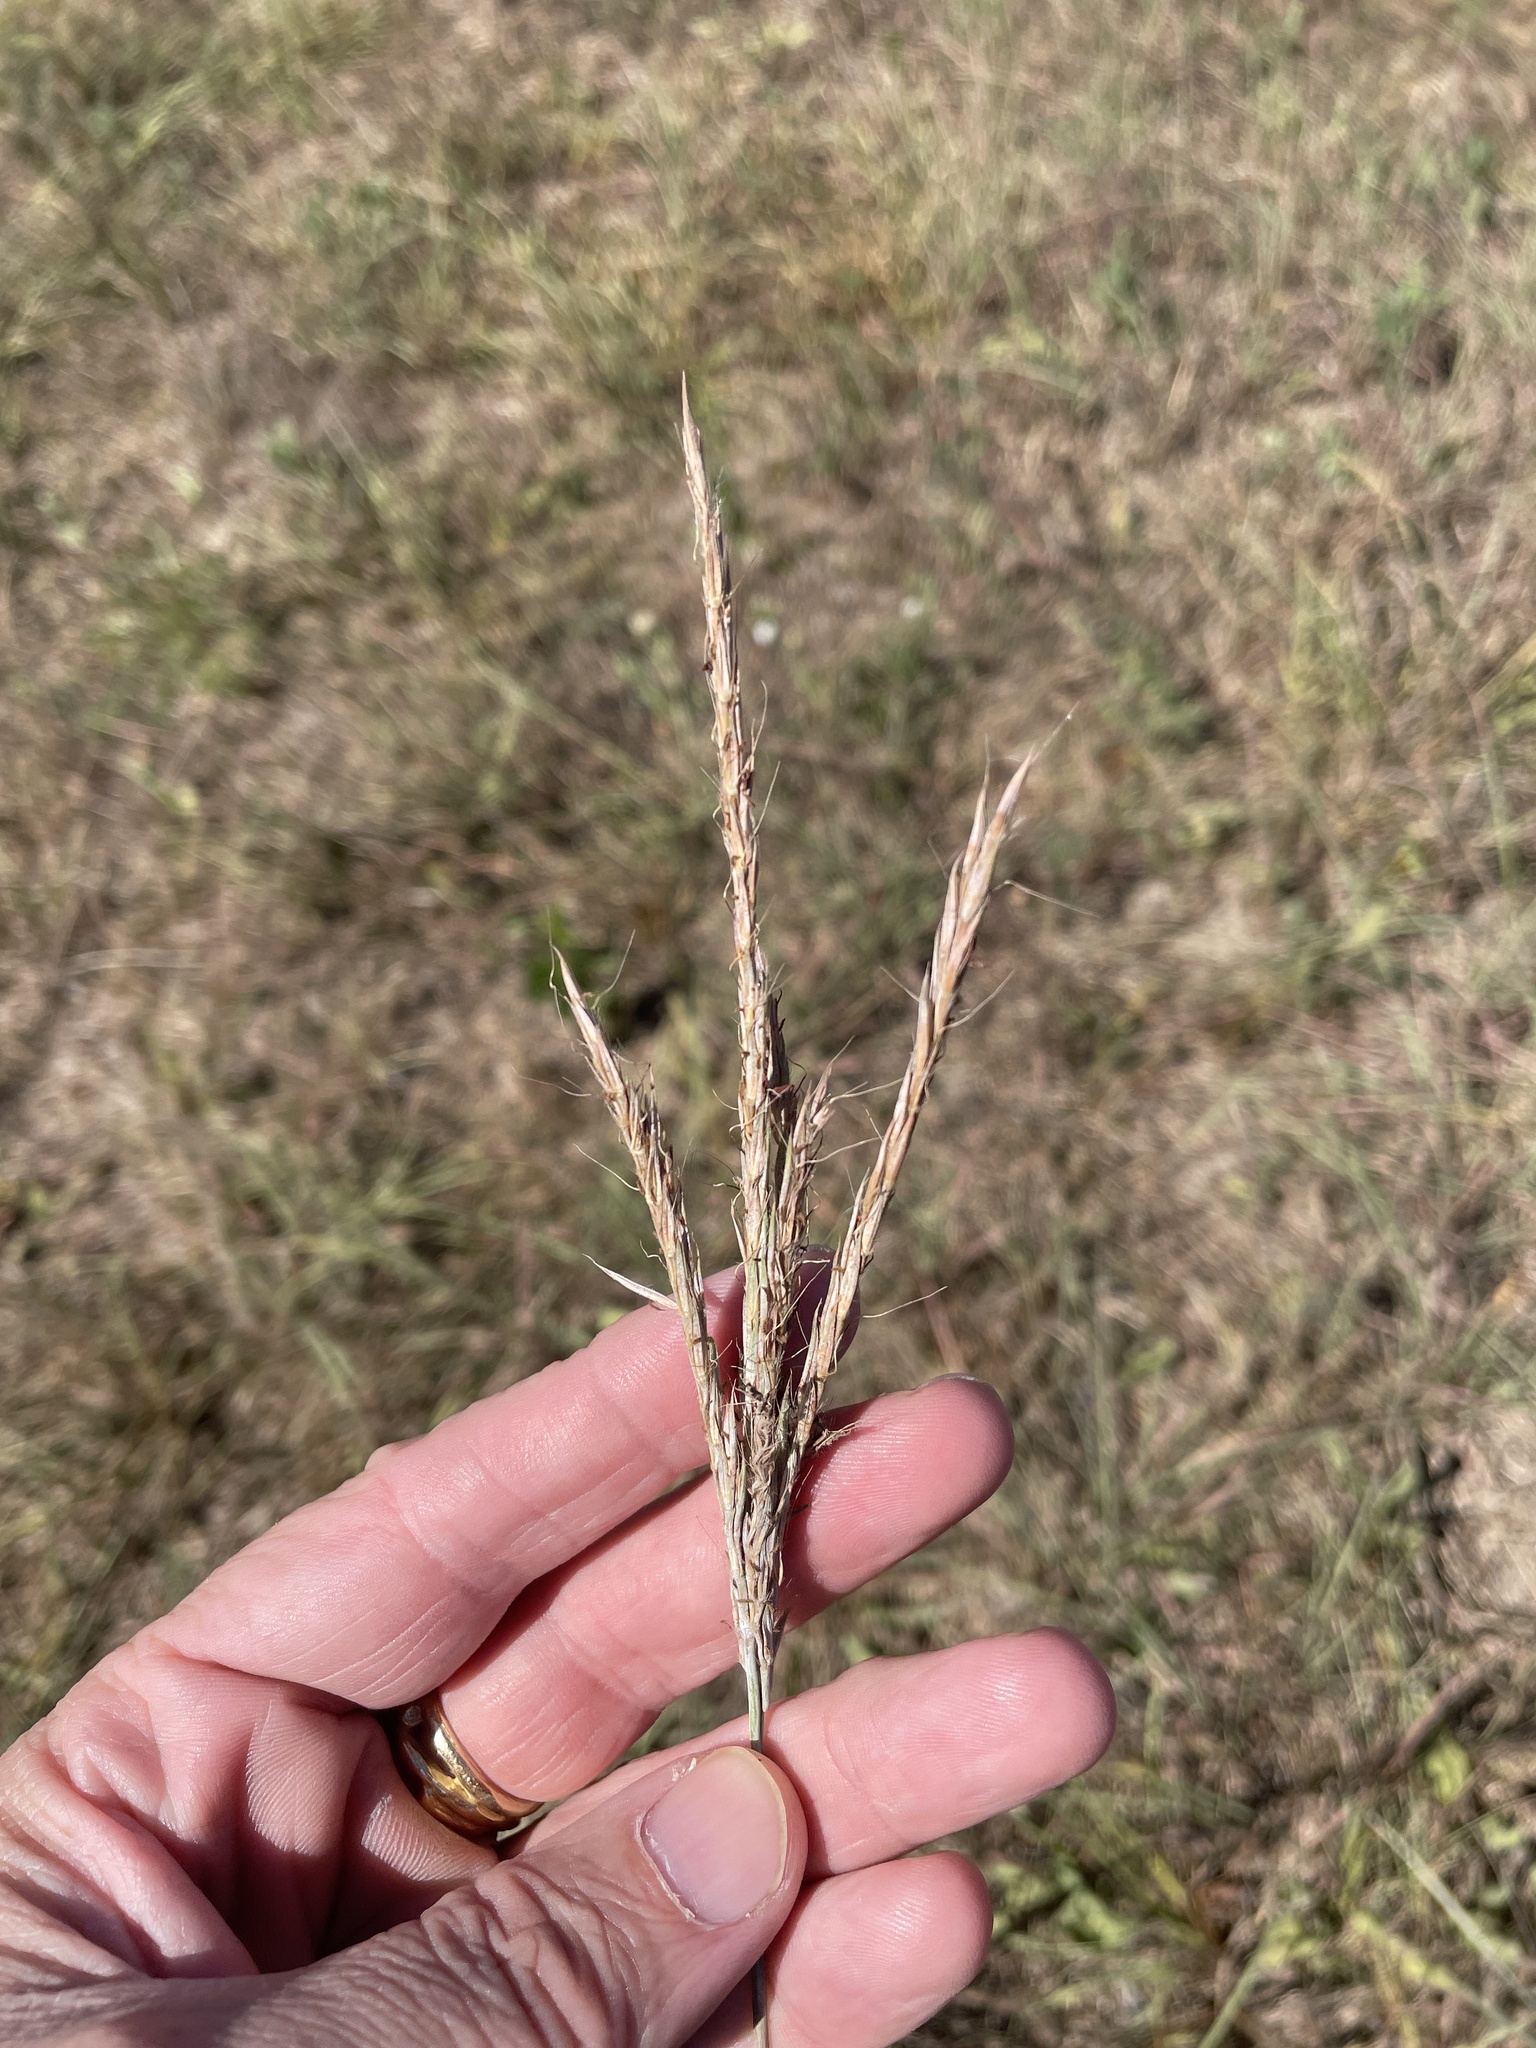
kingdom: Plantae
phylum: Tracheophyta
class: Liliopsida
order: Poales
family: Poaceae
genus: Andropogon
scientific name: Andropogon gerardi
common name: Big bluestem
